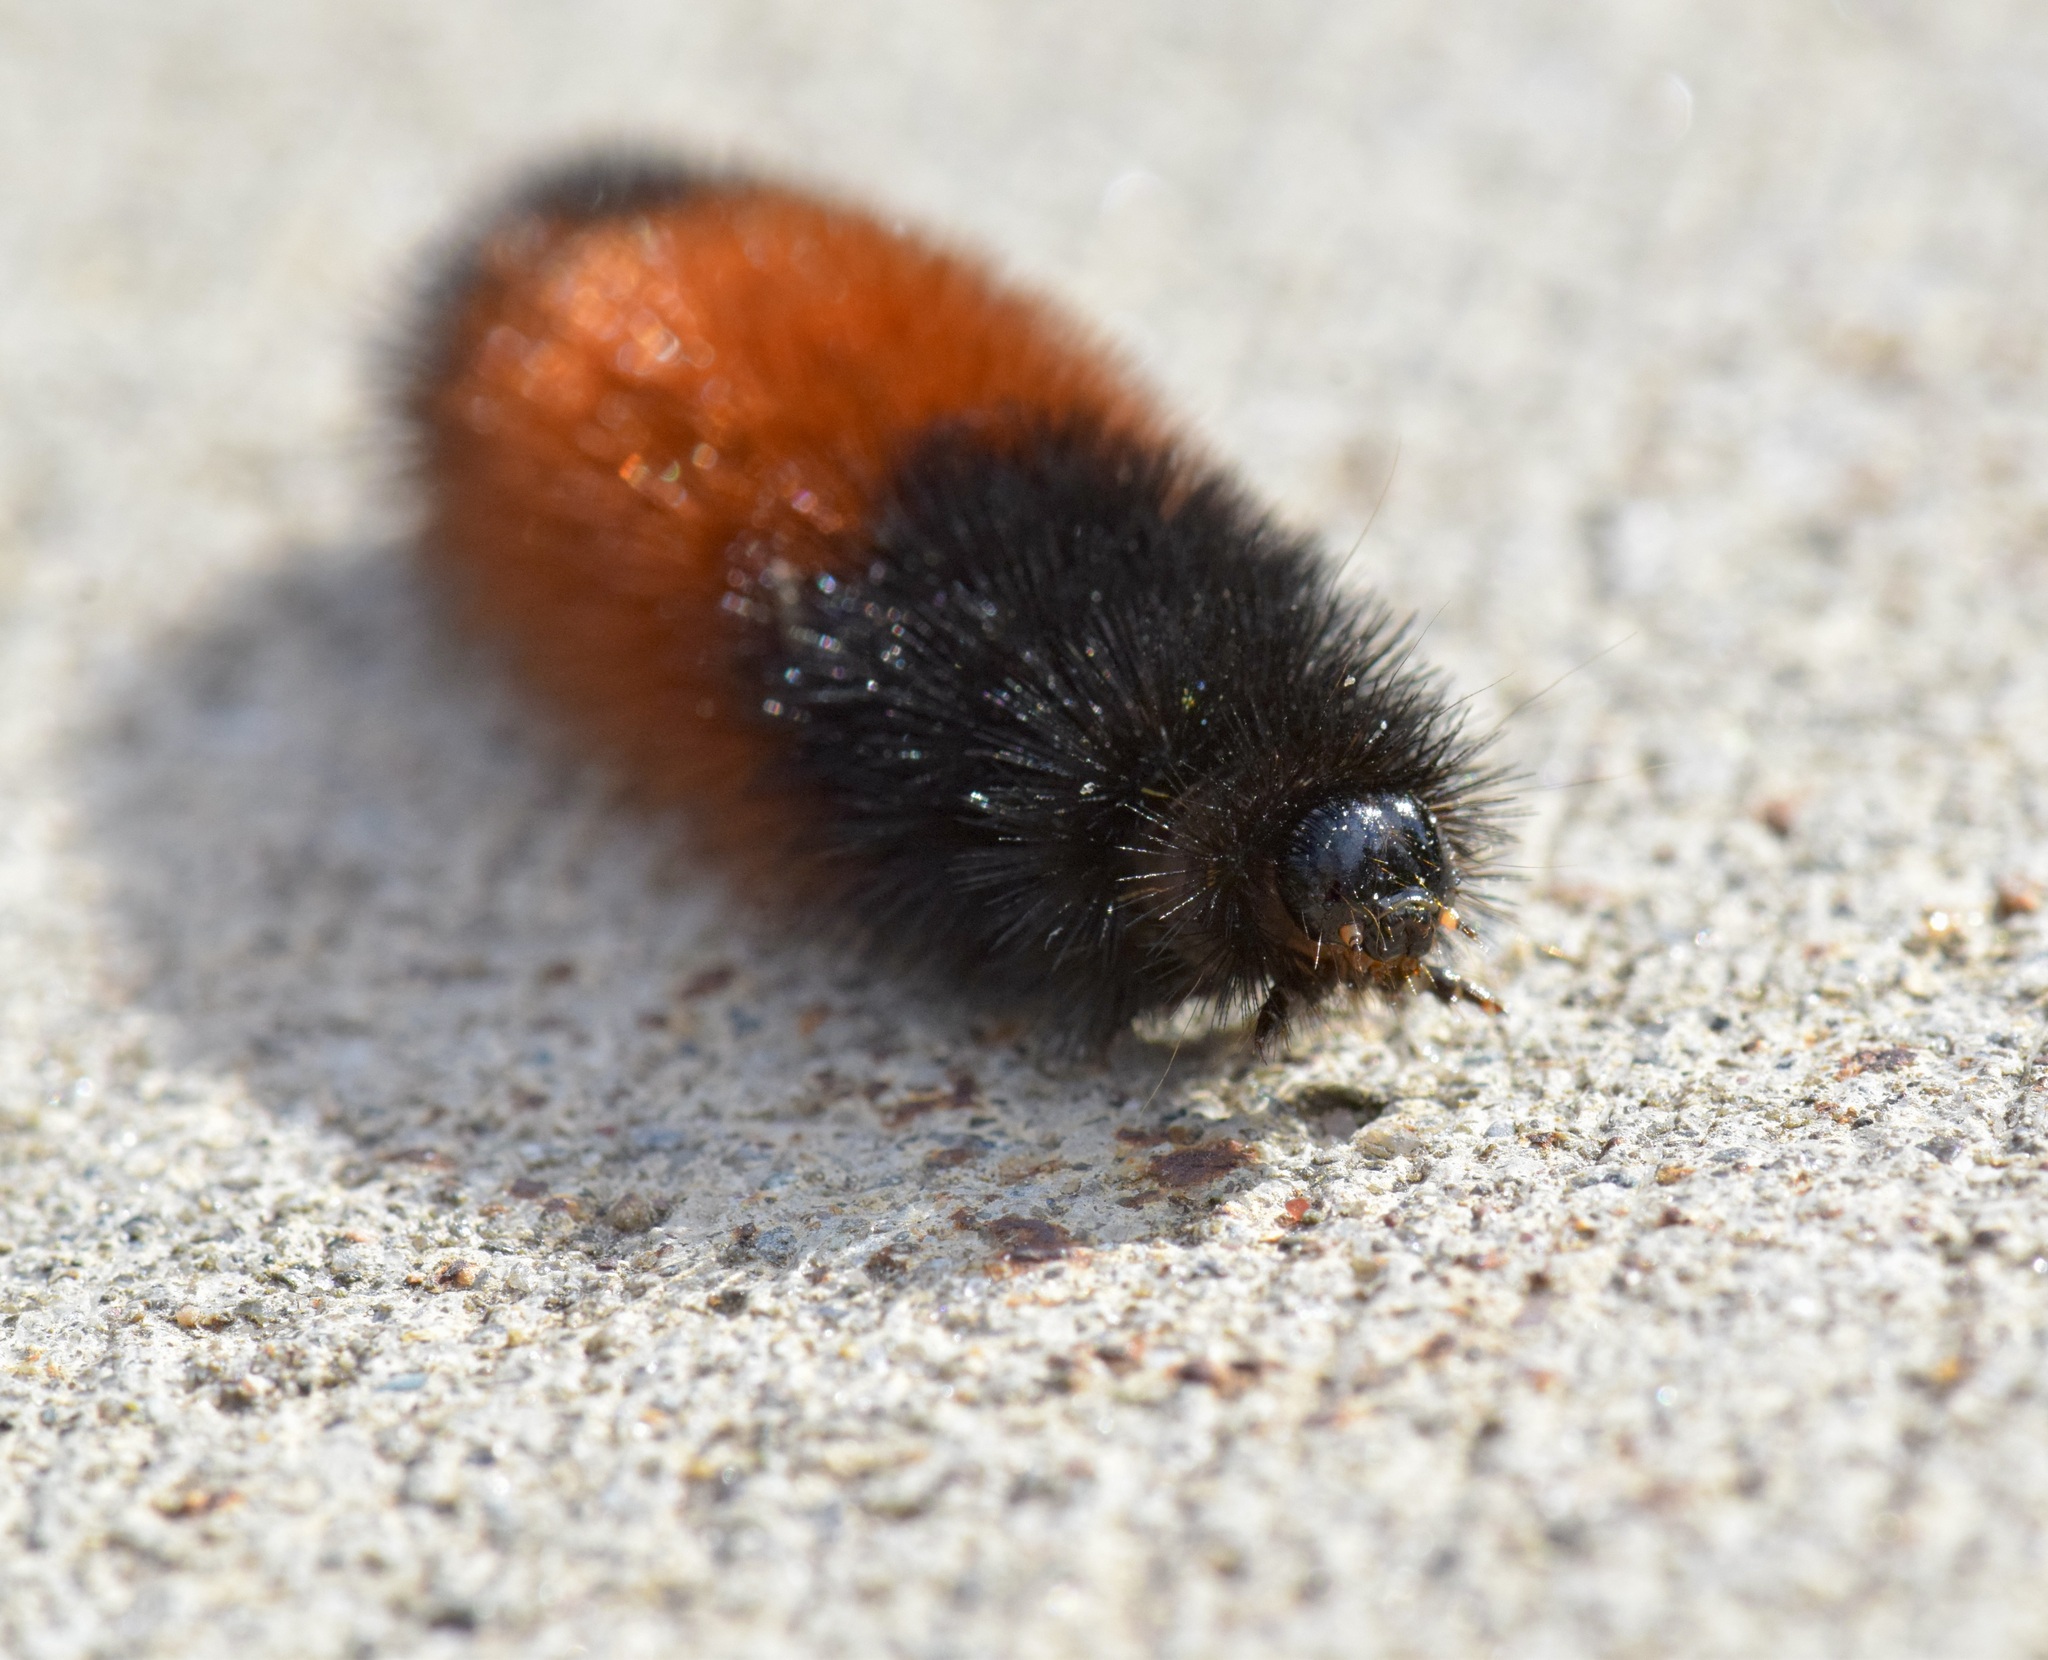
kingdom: Animalia
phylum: Arthropoda
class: Insecta
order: Lepidoptera
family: Erebidae
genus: Pyrrharctia
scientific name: Pyrrharctia isabella
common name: Isabella tiger moth
